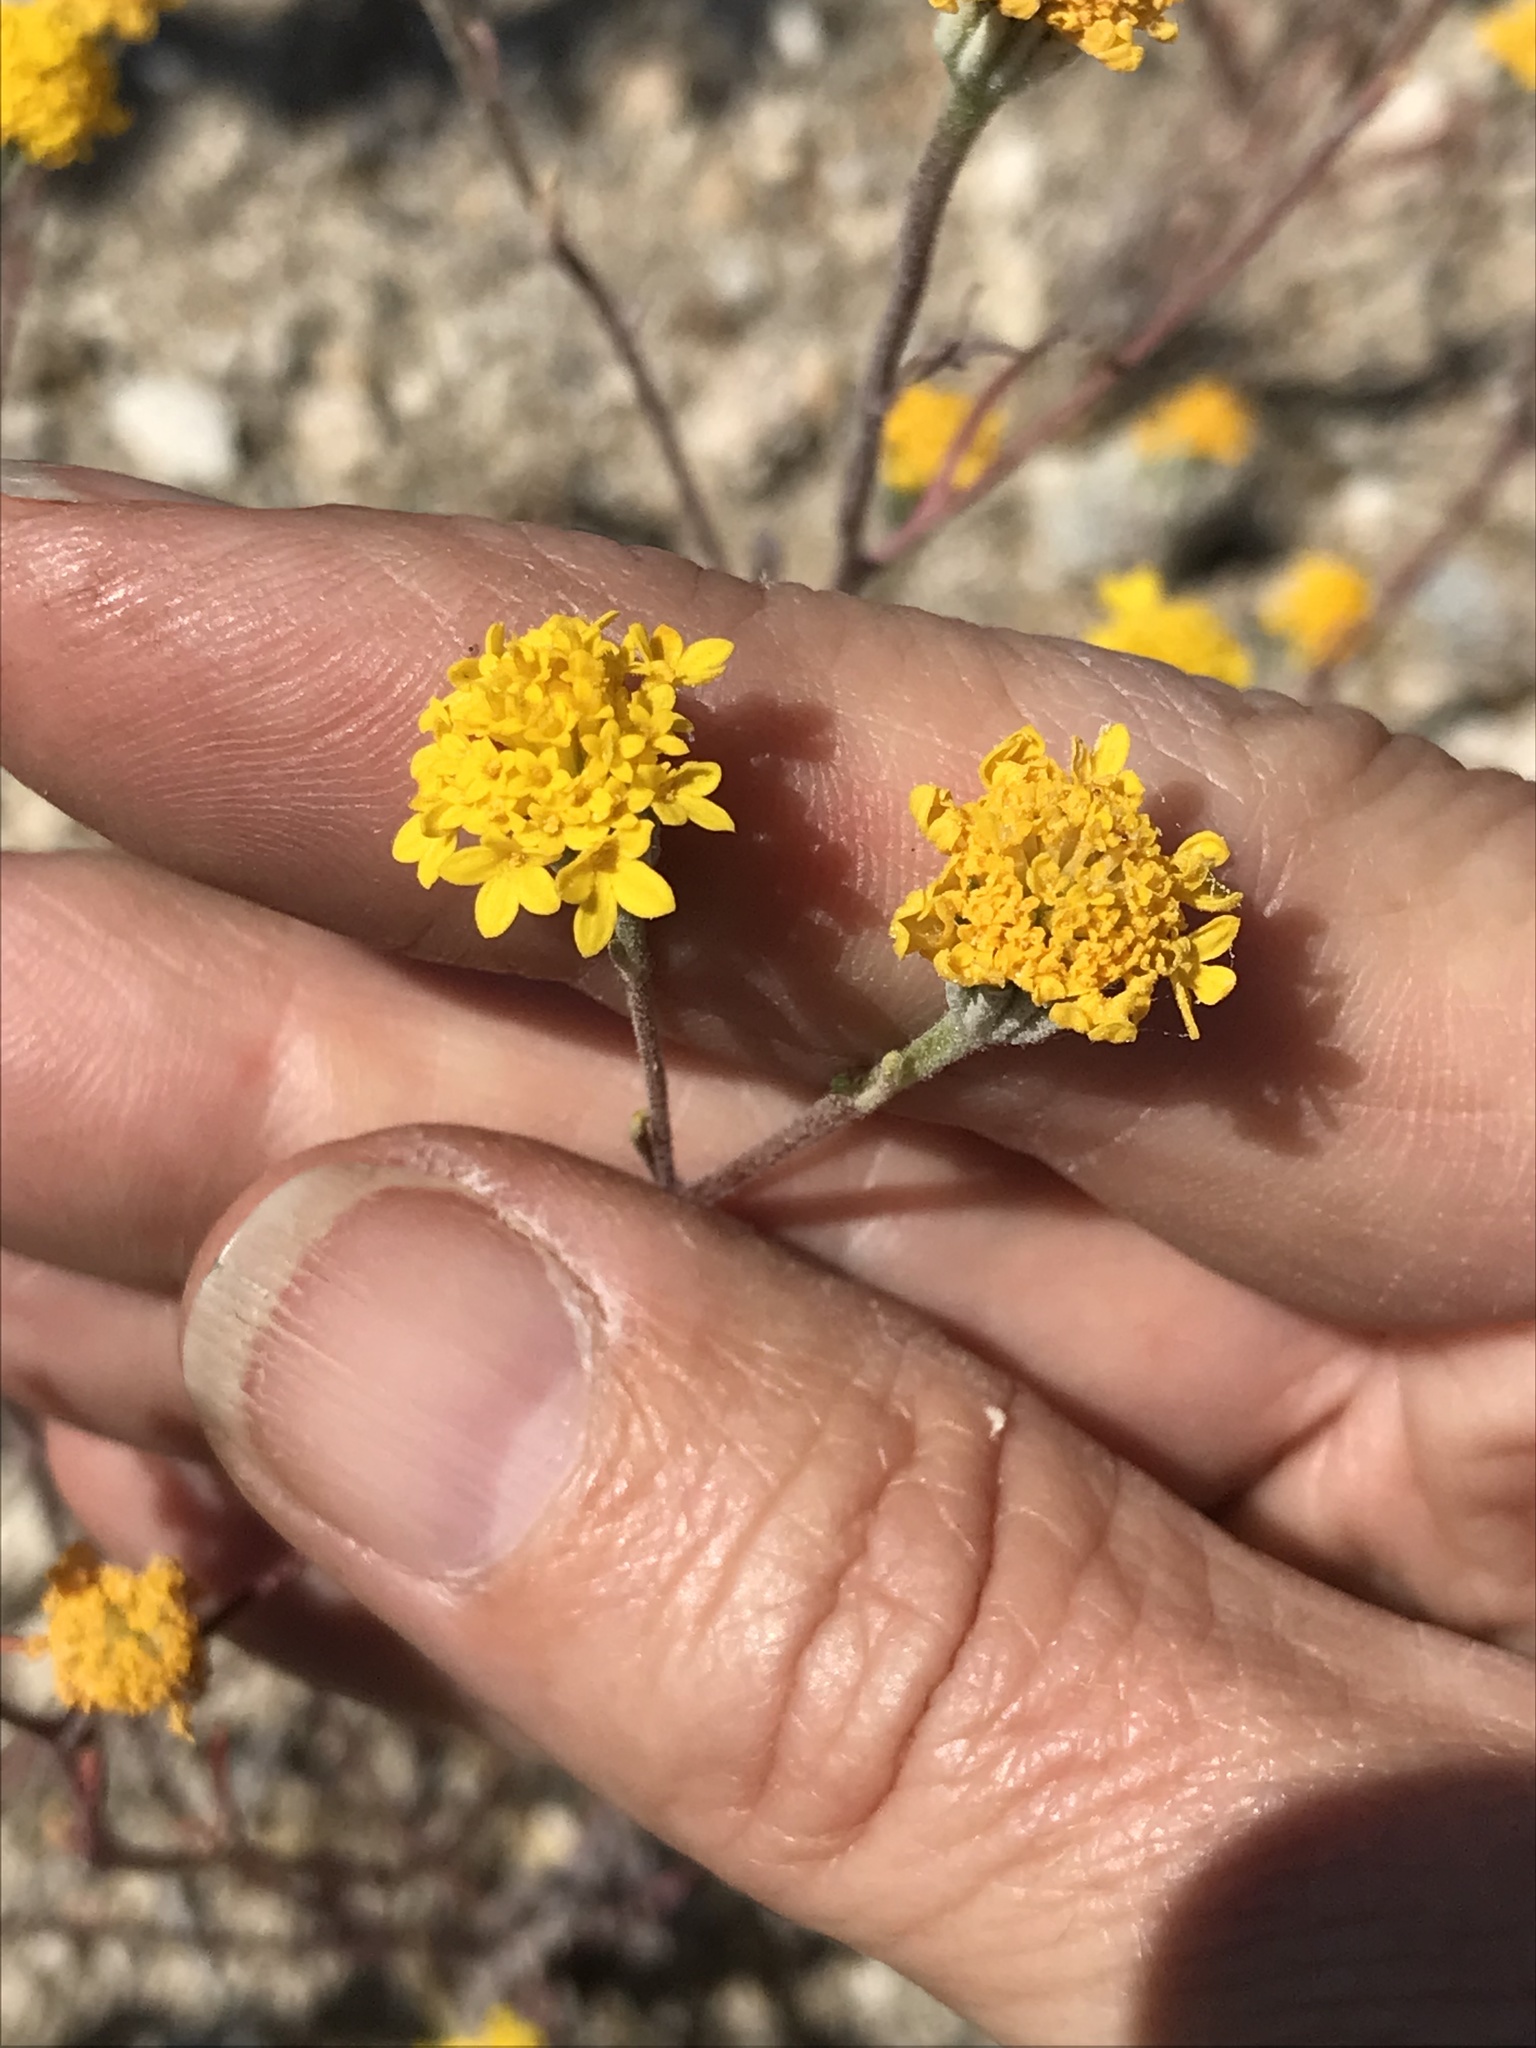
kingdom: Plantae
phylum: Tracheophyta
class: Magnoliopsida
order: Asterales
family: Asteraceae
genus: Chaenactis
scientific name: Chaenactis glabriuscula
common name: Yellow pincushion
